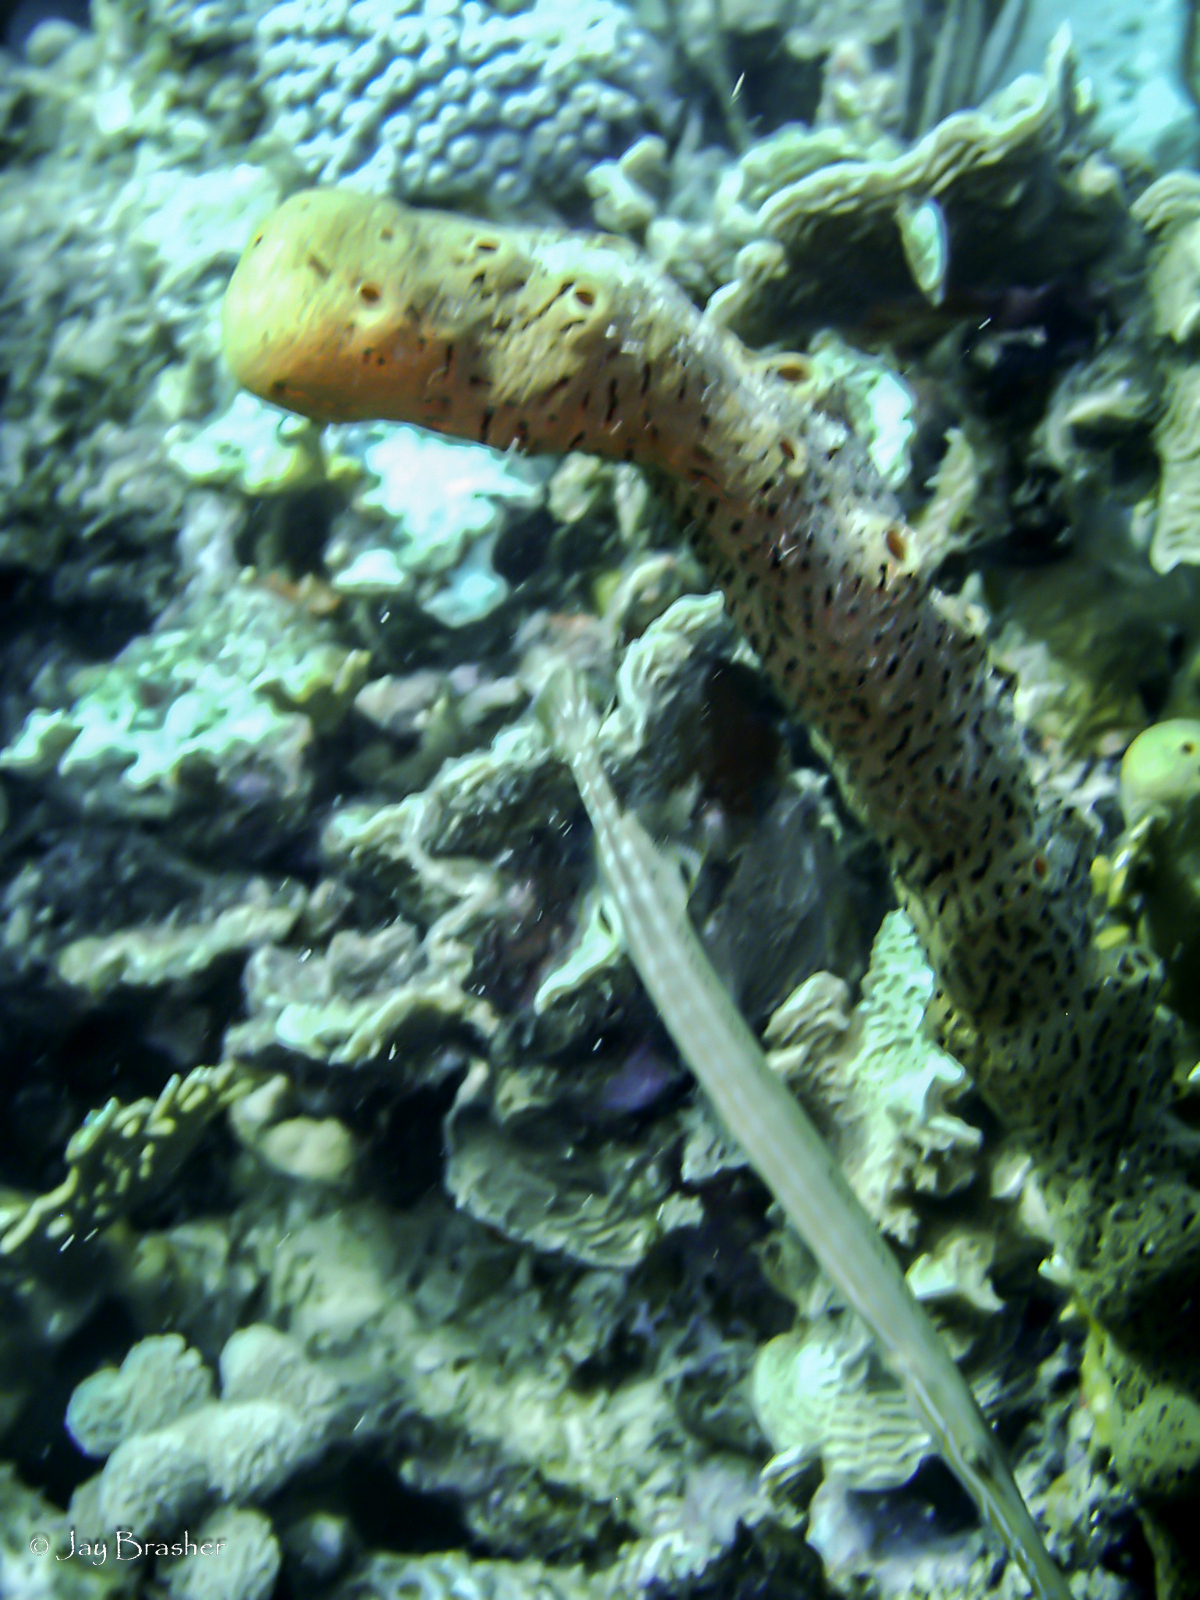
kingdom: Animalia
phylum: Cnidaria
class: Anthozoa
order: Zoantharia
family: Parazoanthidae
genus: Bergia
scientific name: Bergia puertoricense
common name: Maroon sponge zoanthid
